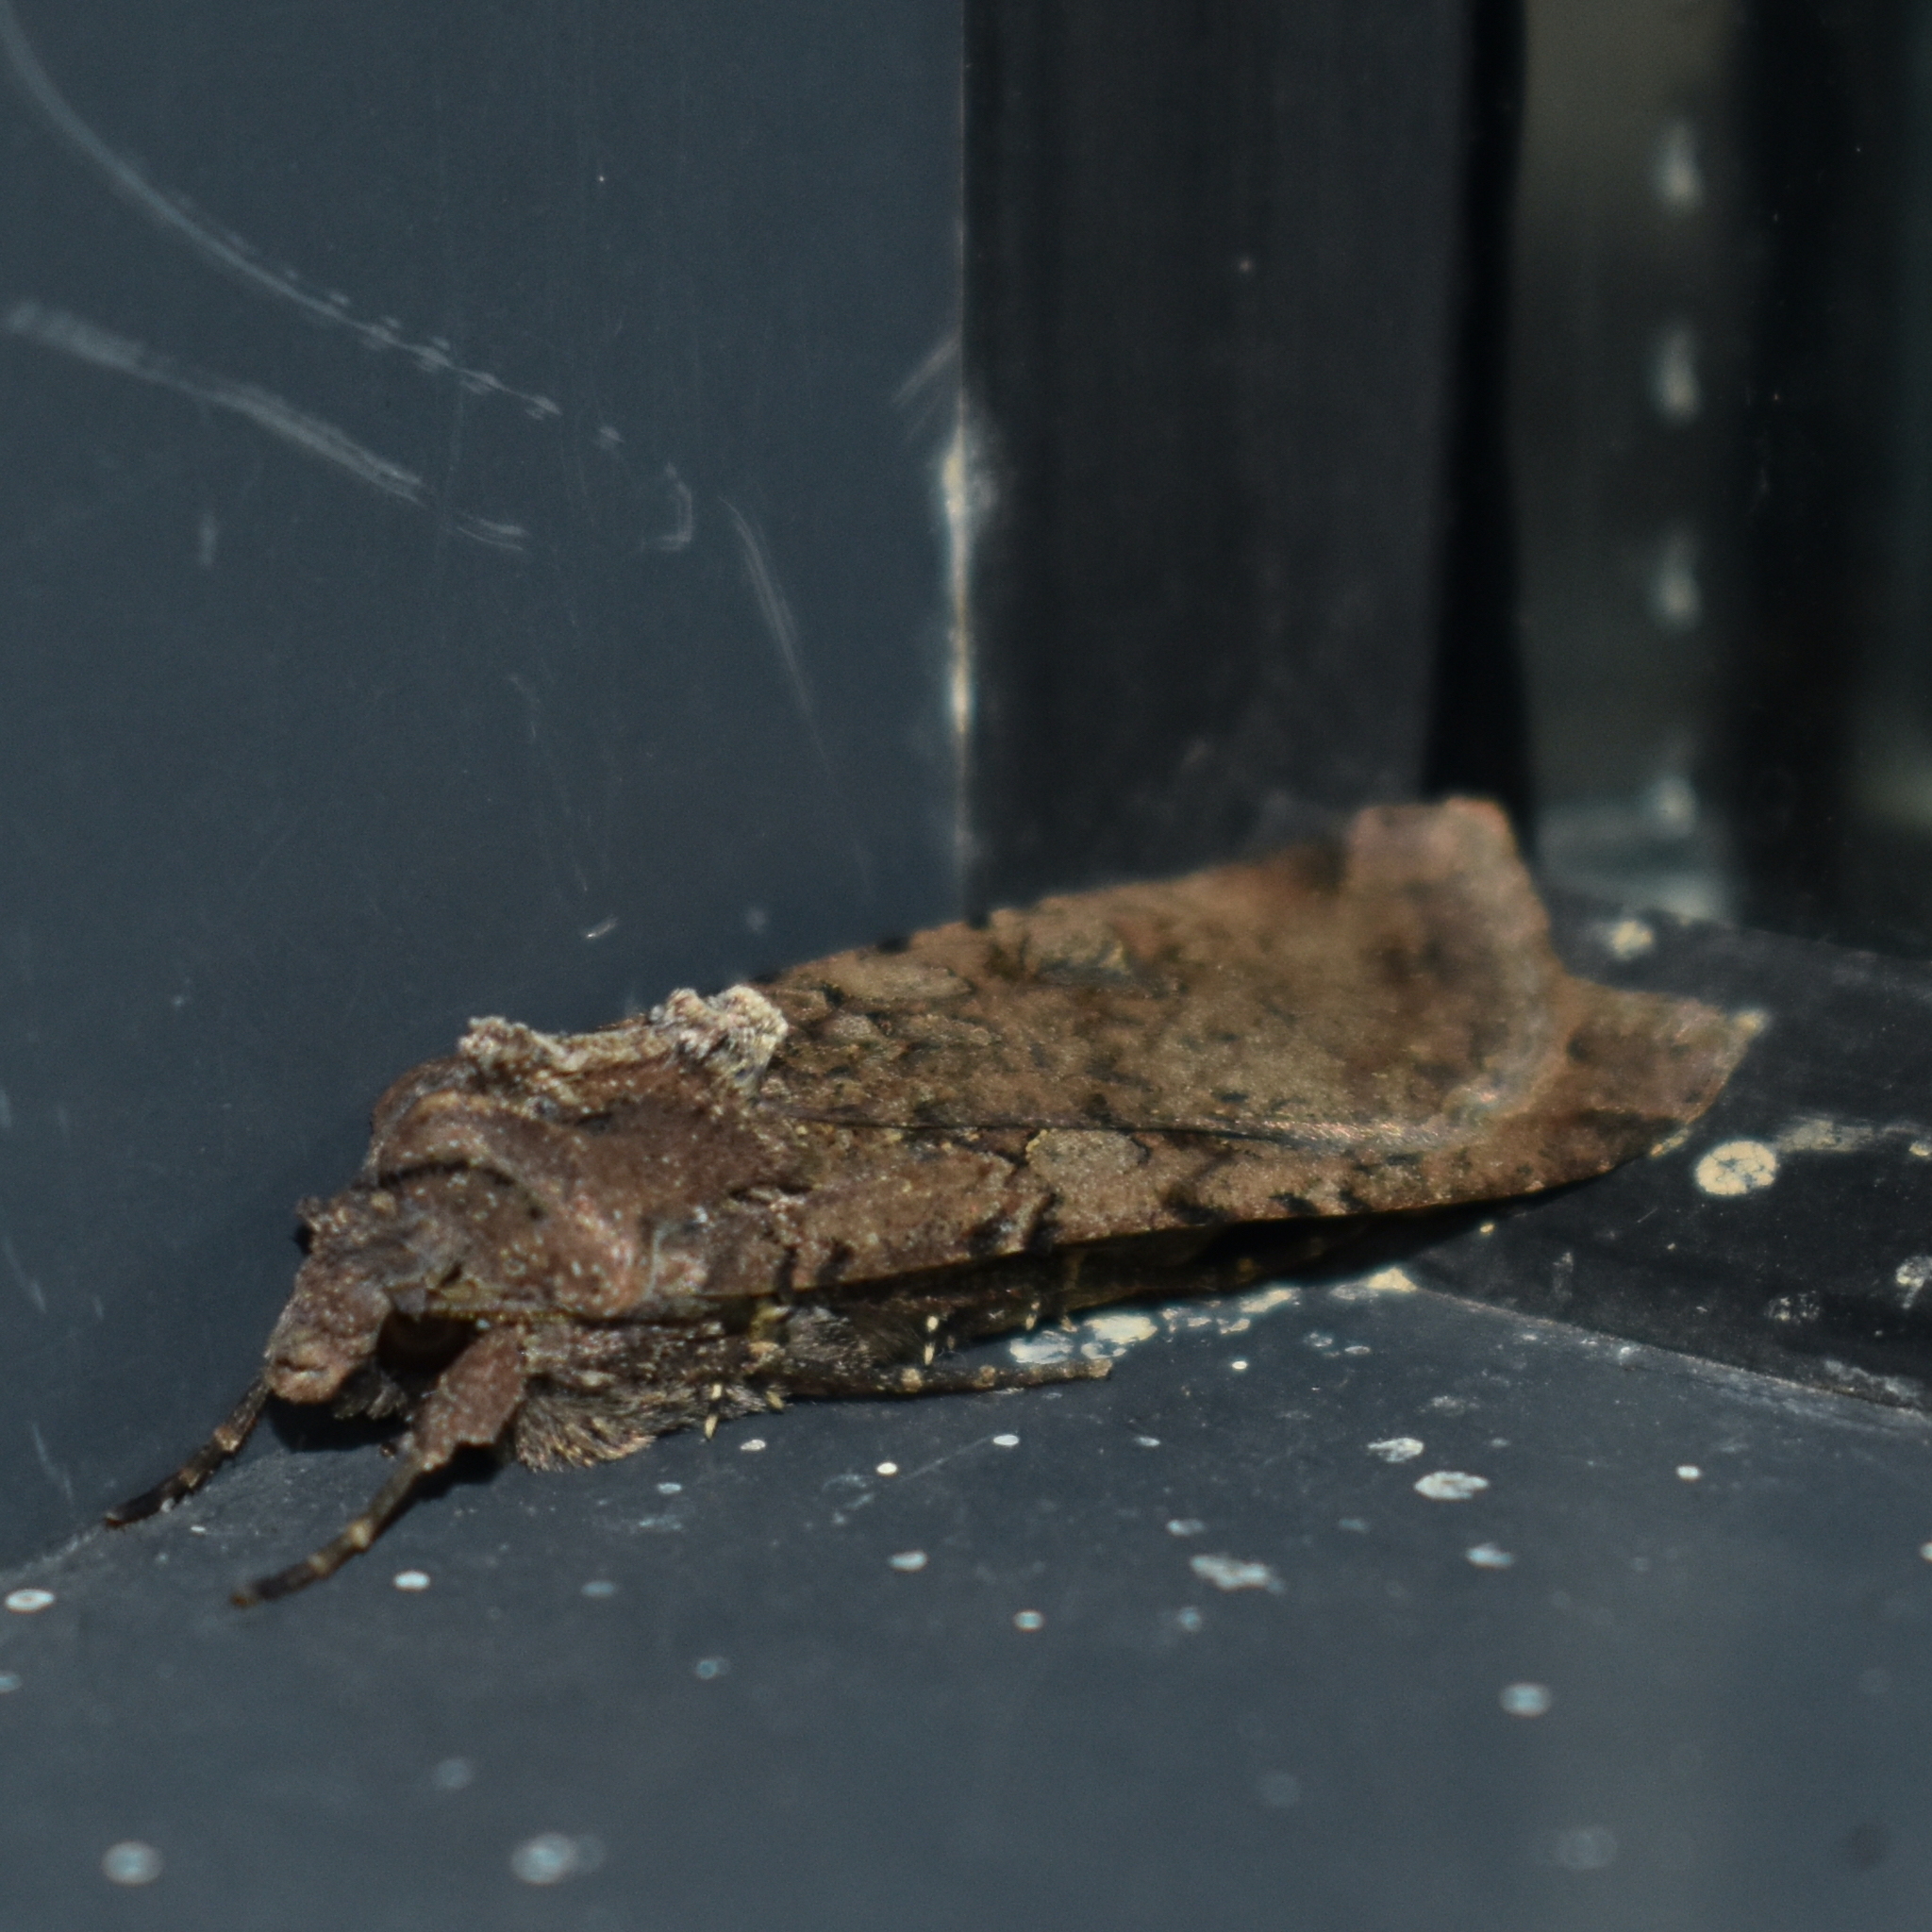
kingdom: Animalia
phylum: Arthropoda
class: Insecta
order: Lepidoptera
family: Noctuidae
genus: Peridroma
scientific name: Peridroma saucia
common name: Pearly underwing
